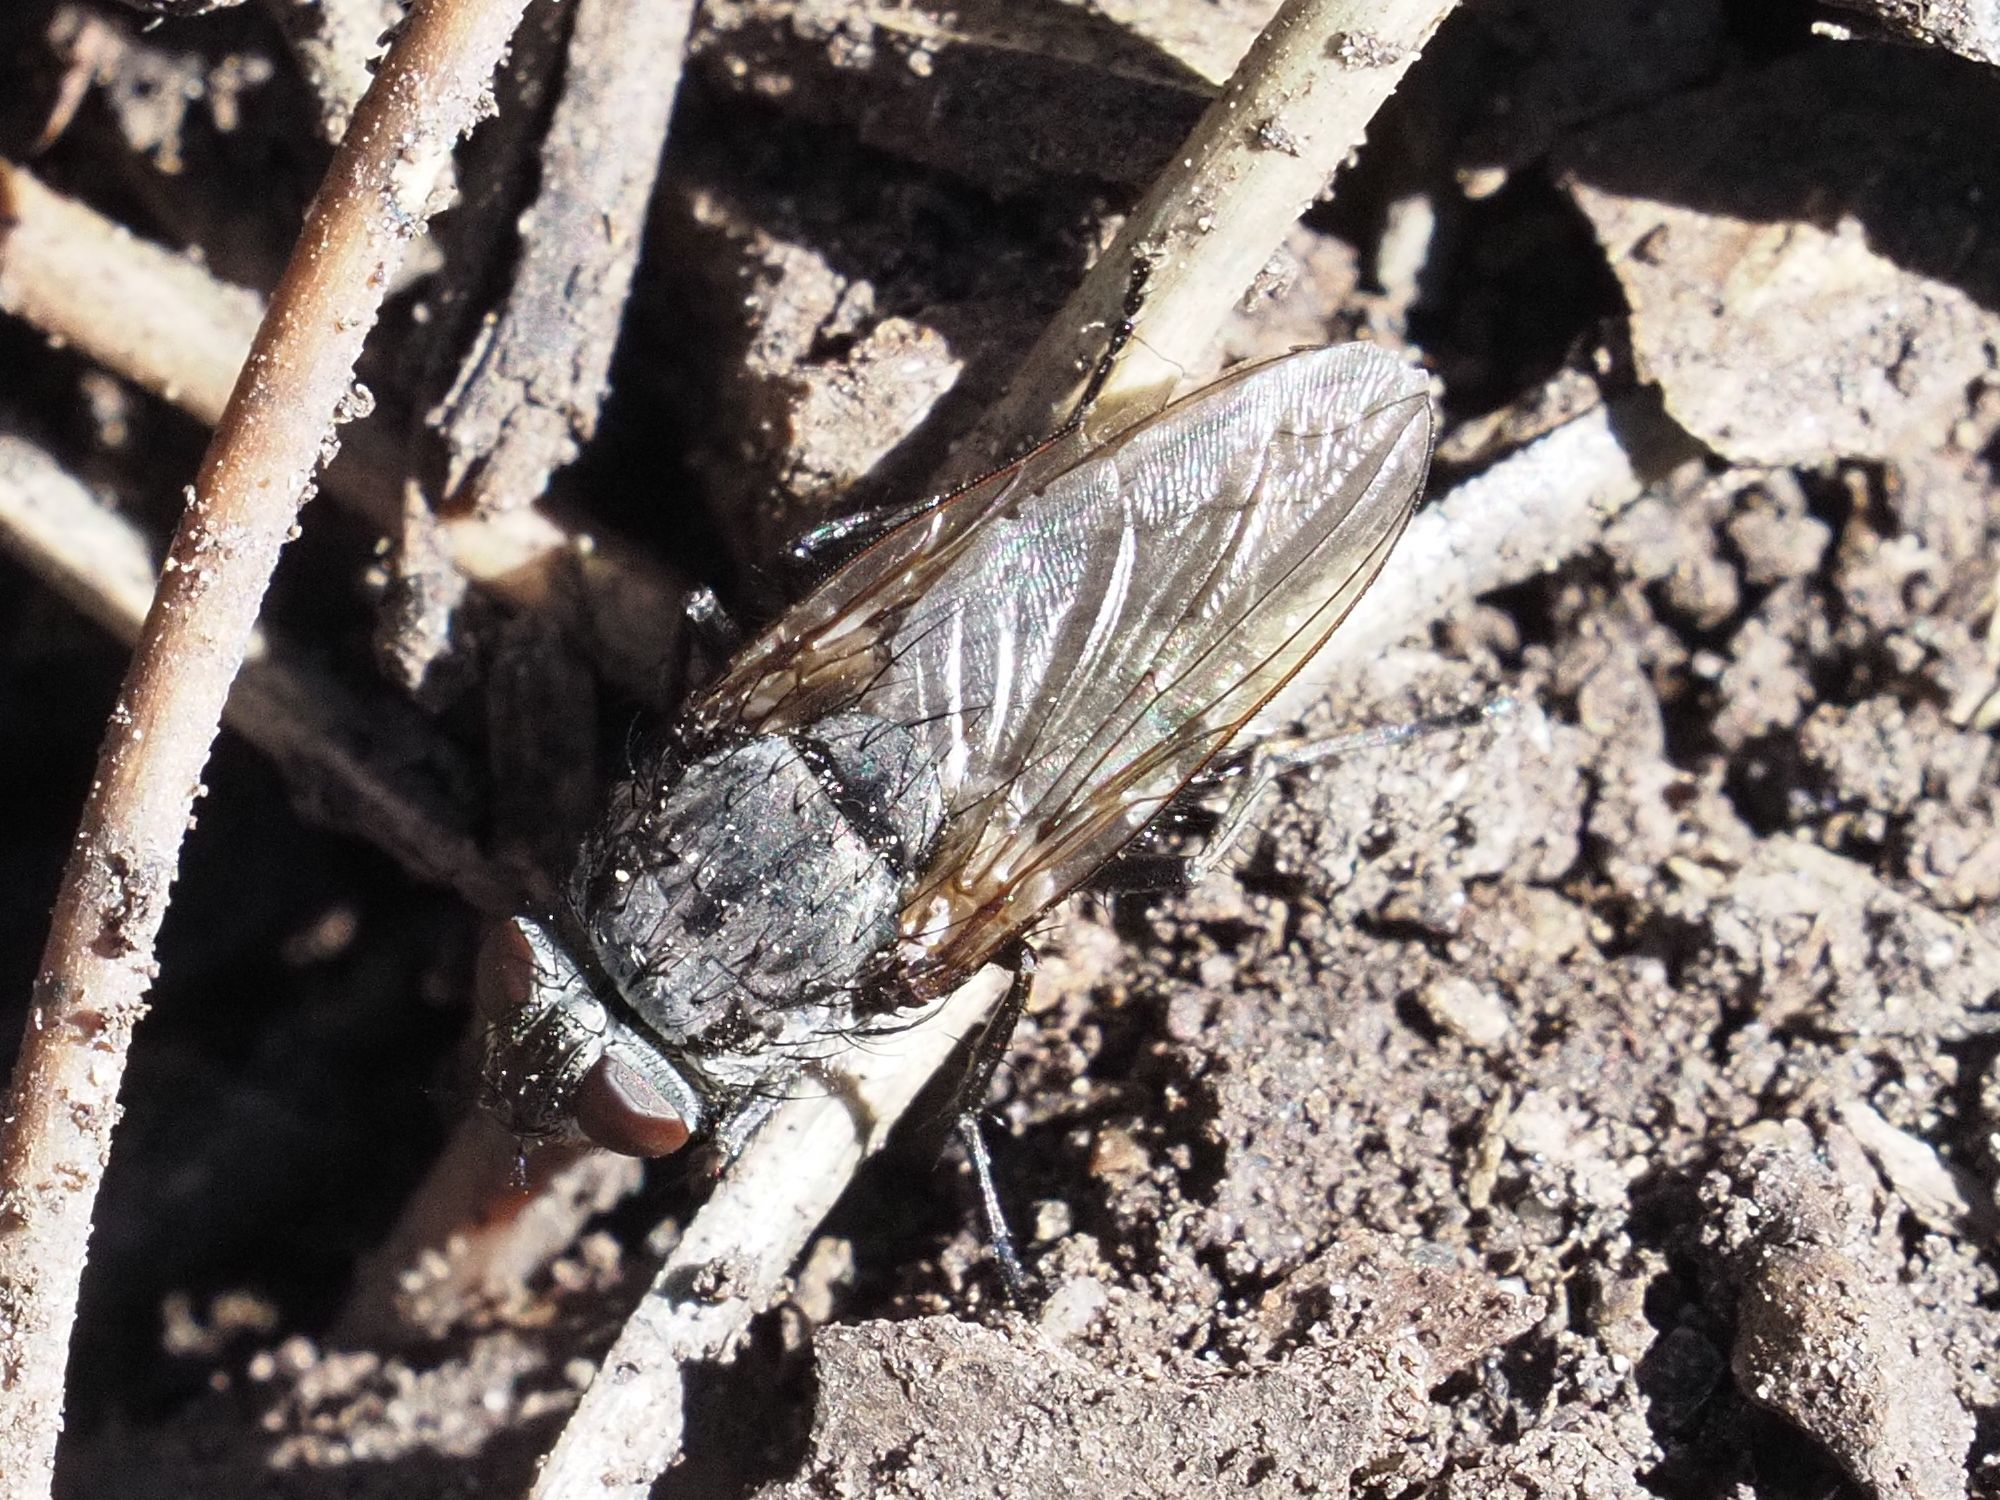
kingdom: Animalia
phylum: Arthropoda
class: Insecta
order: Diptera
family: Polleniidae
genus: Pollenia
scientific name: Pollenia vagabunda
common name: Vagabund cluster fly
